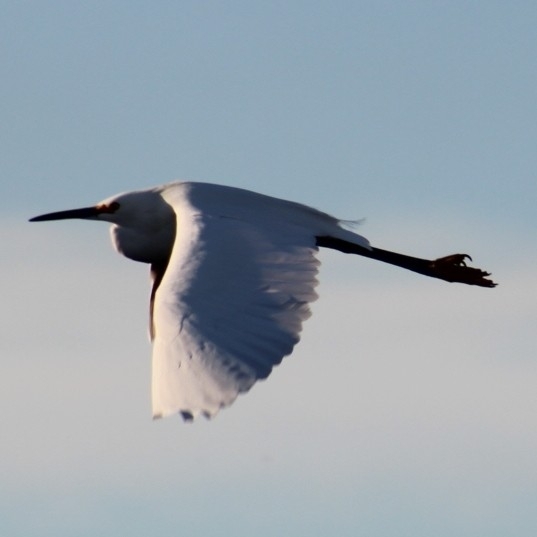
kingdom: Animalia
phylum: Chordata
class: Aves
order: Pelecaniformes
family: Ardeidae
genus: Egretta
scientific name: Egretta thula
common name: Snowy egret
